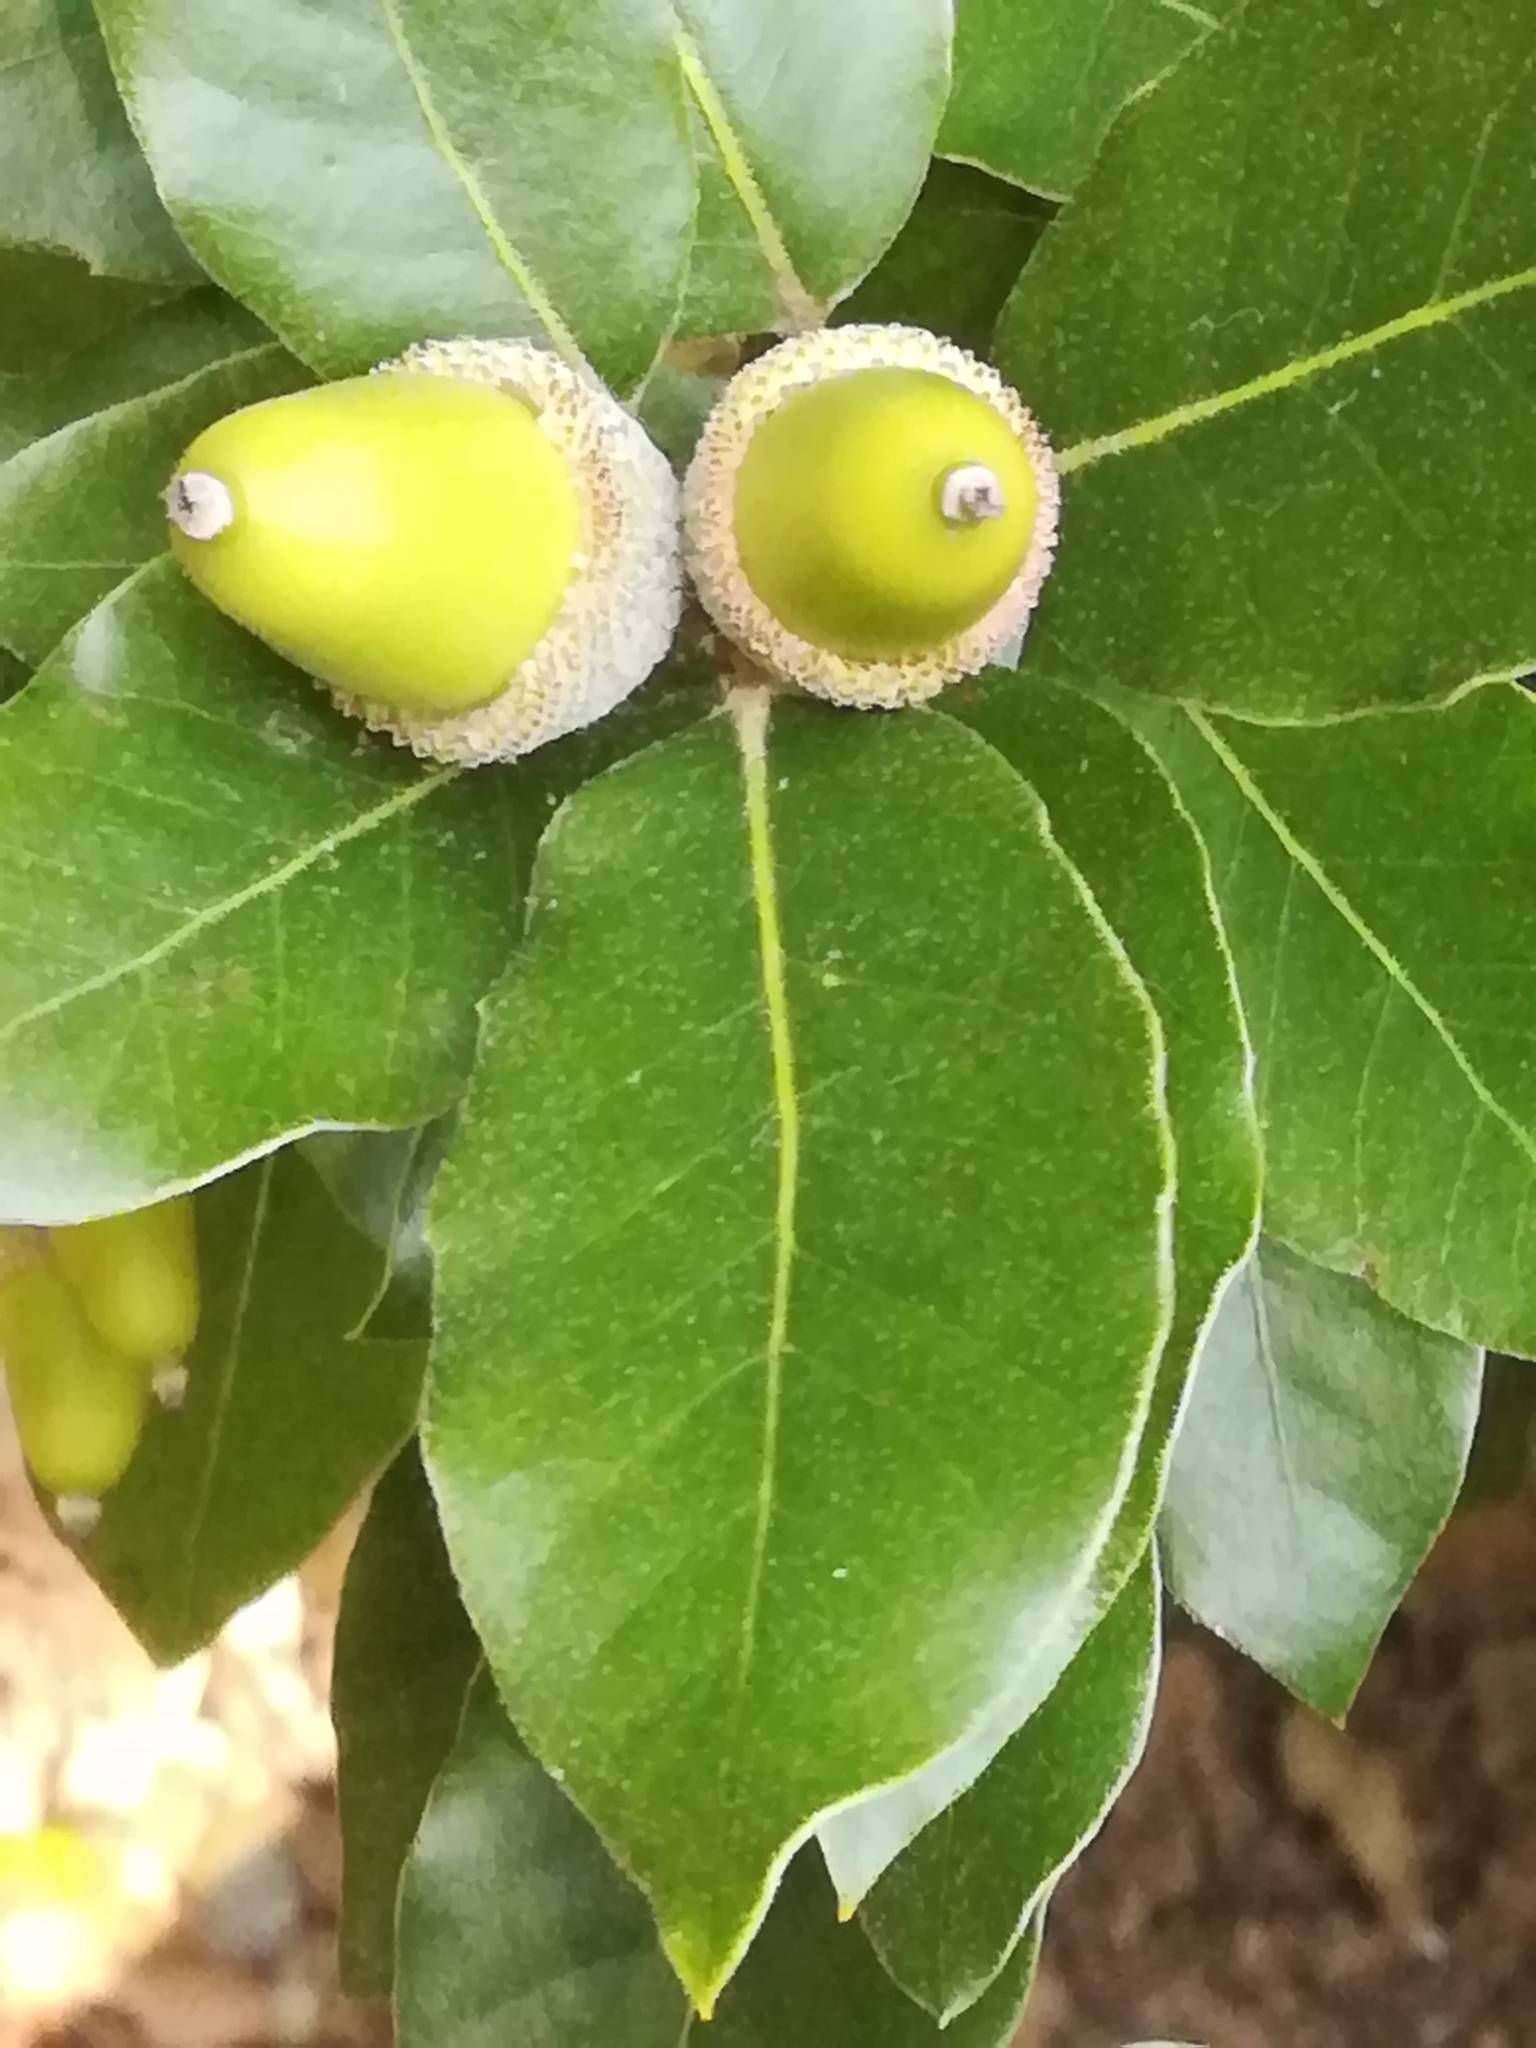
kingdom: Plantae
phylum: Tracheophyta
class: Magnoliopsida
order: Fagales
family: Fagaceae
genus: Quercus
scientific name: Quercus ilex
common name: Evergreen oak
